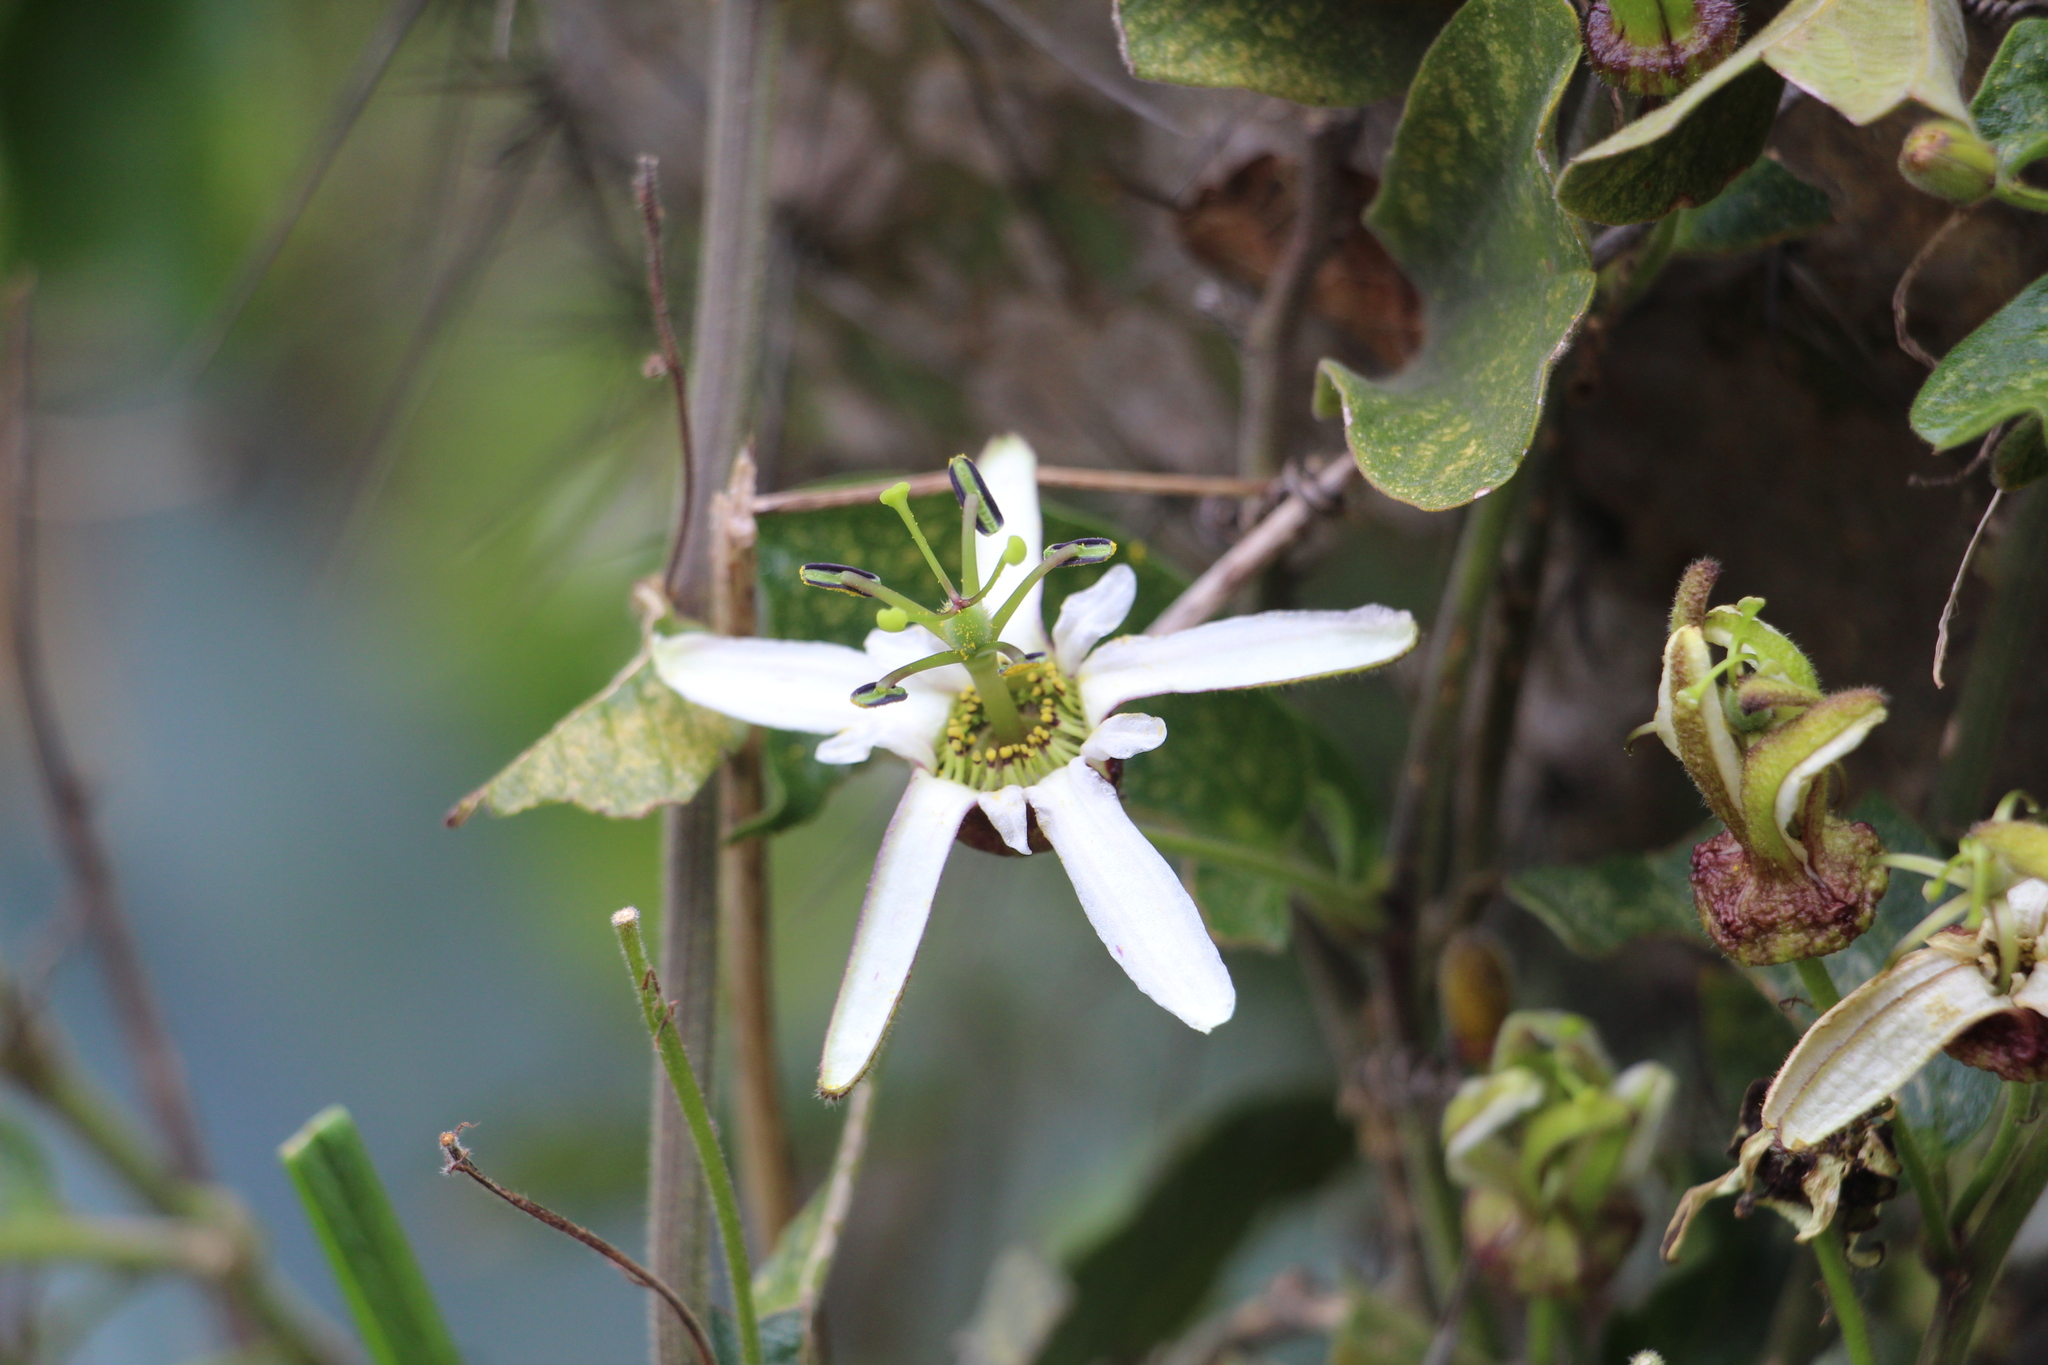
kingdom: Plantae
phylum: Tracheophyta
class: Magnoliopsida
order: Malpighiales
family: Passifloraceae
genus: Passiflora
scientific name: Passiflora bogotensis
